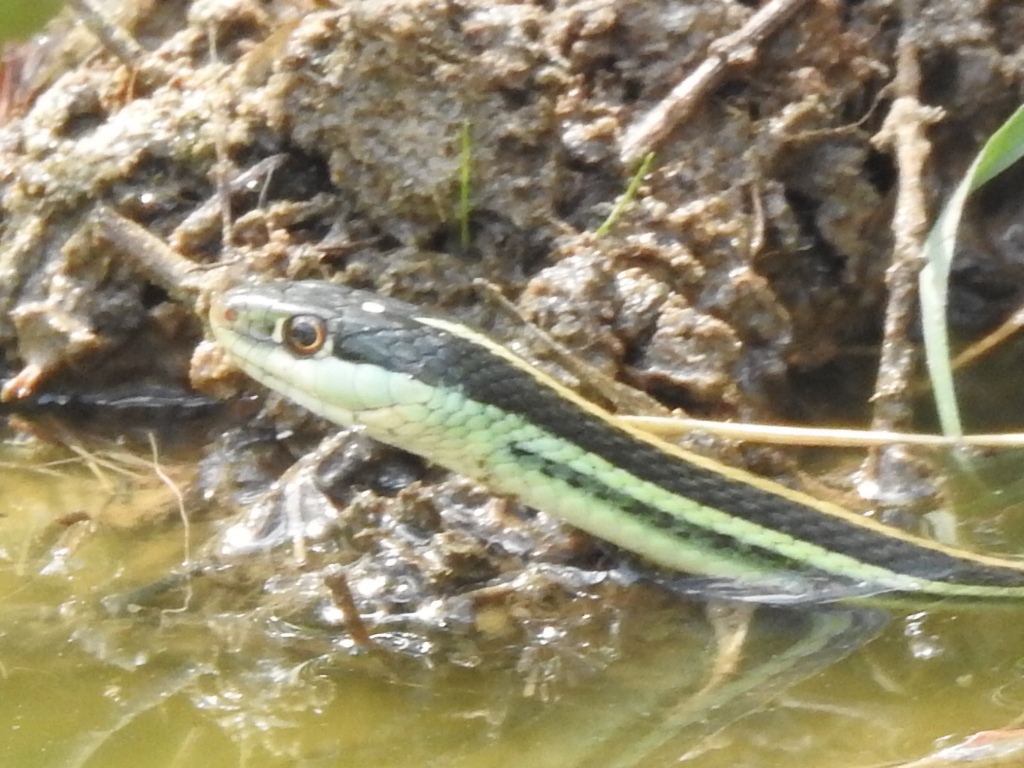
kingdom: Animalia
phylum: Chordata
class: Squamata
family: Colubridae
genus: Thamnophis
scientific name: Thamnophis proximus
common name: Western ribbon snake
